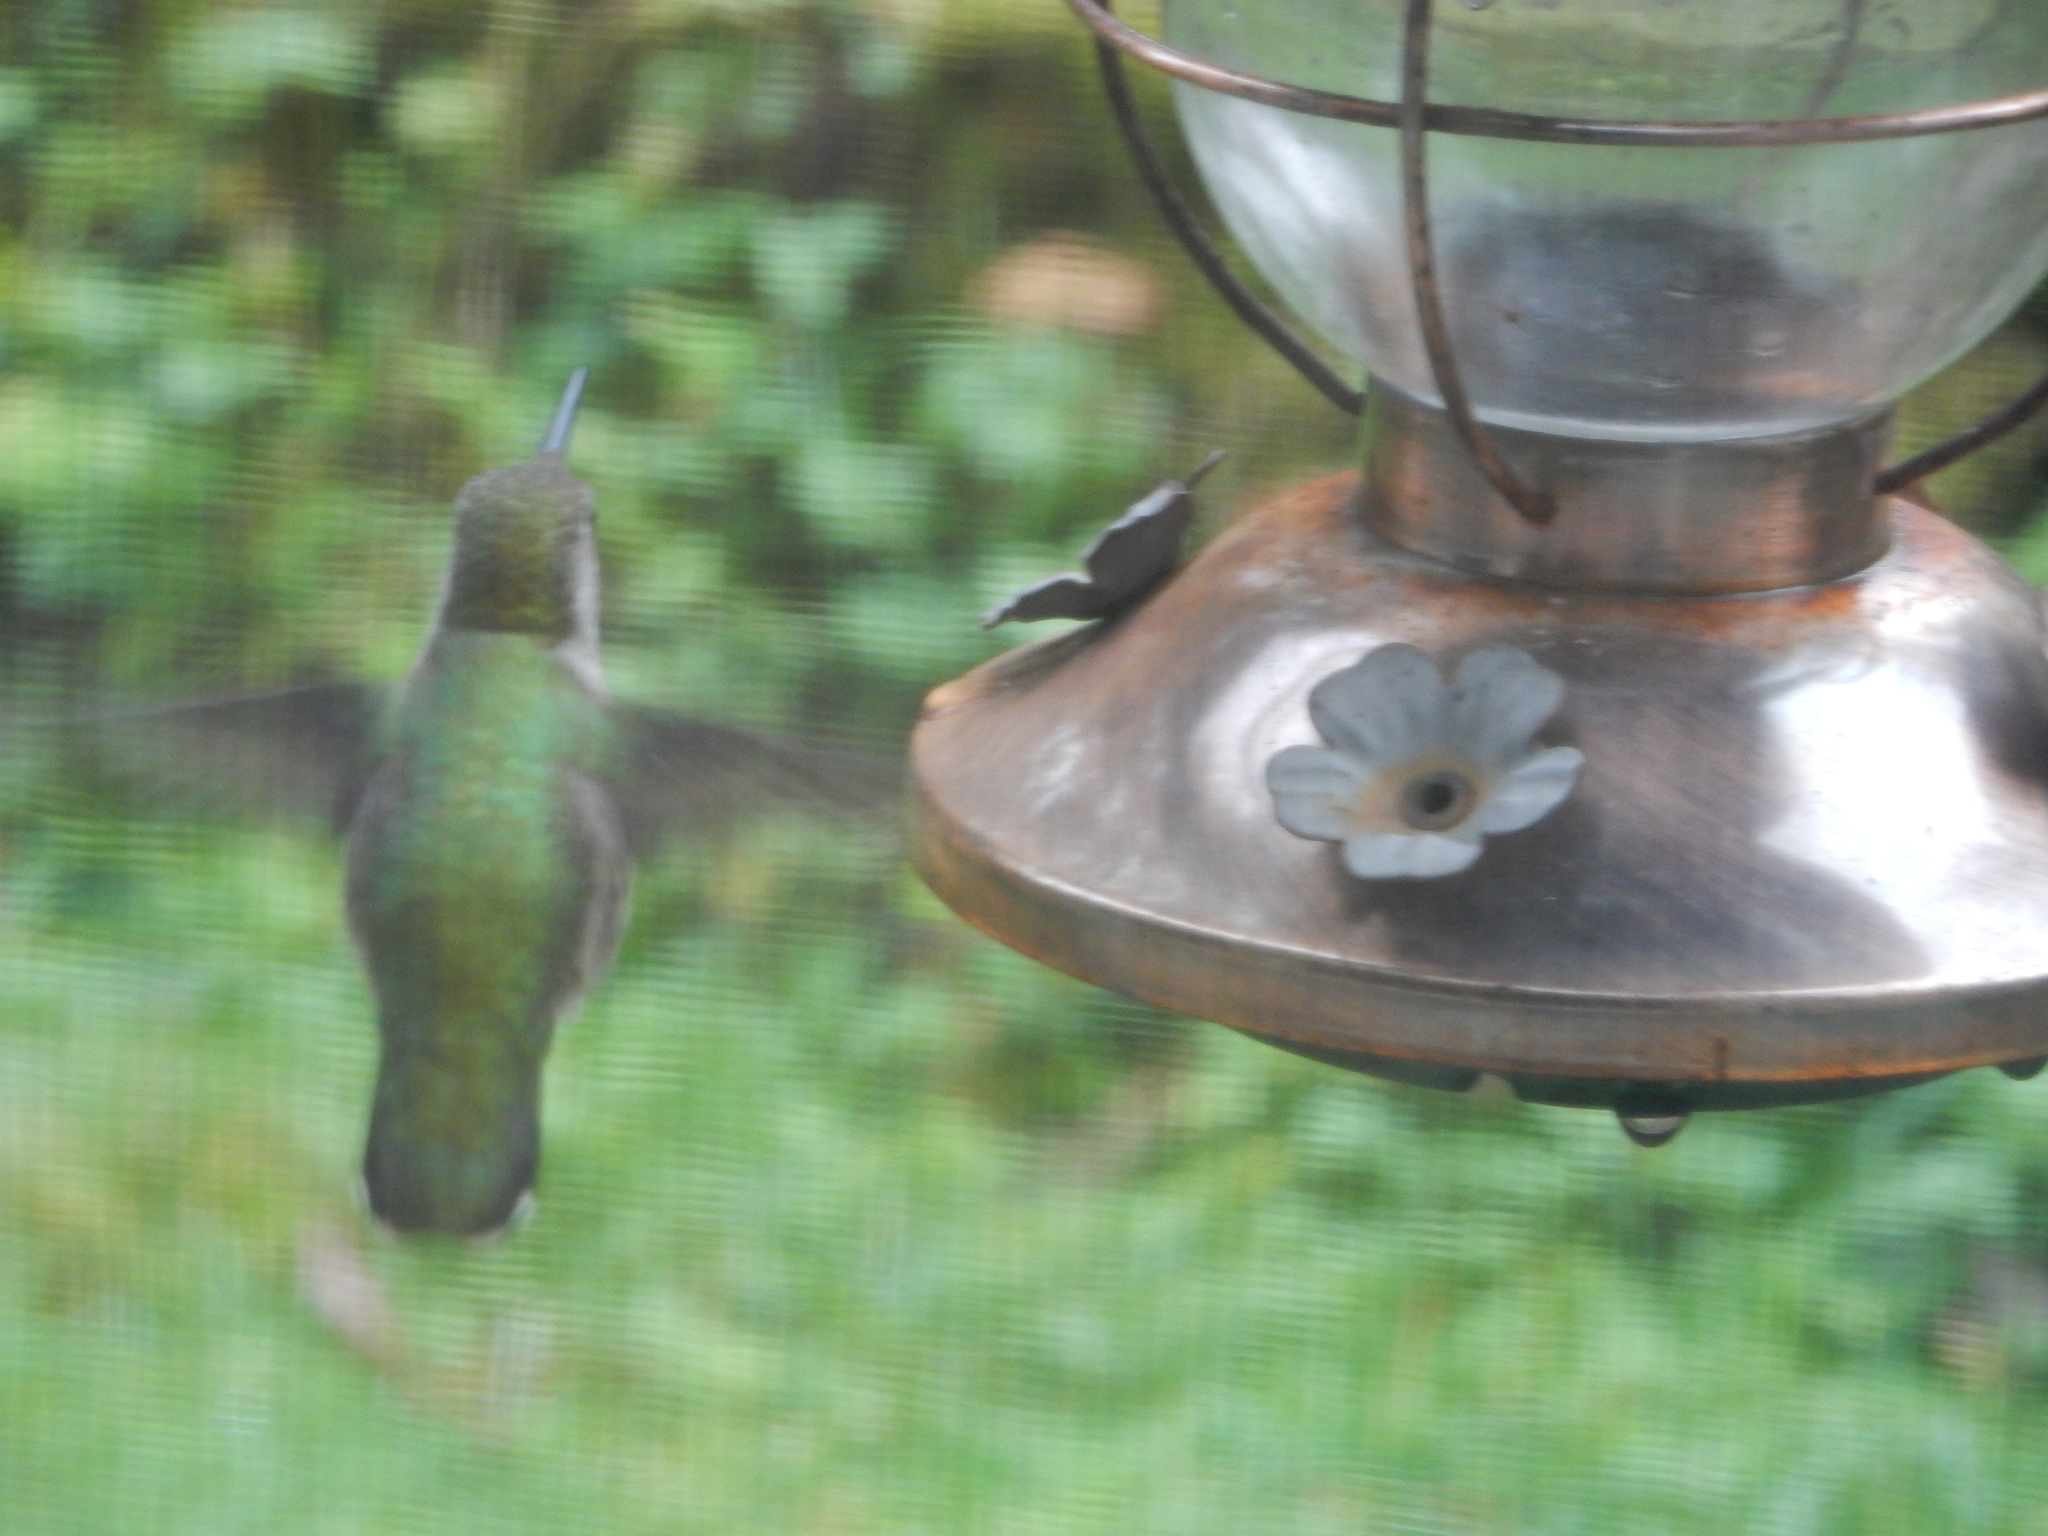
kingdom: Animalia
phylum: Chordata
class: Aves
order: Apodiformes
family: Trochilidae
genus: Calypte
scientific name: Calypte anna
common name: Anna's hummingbird
